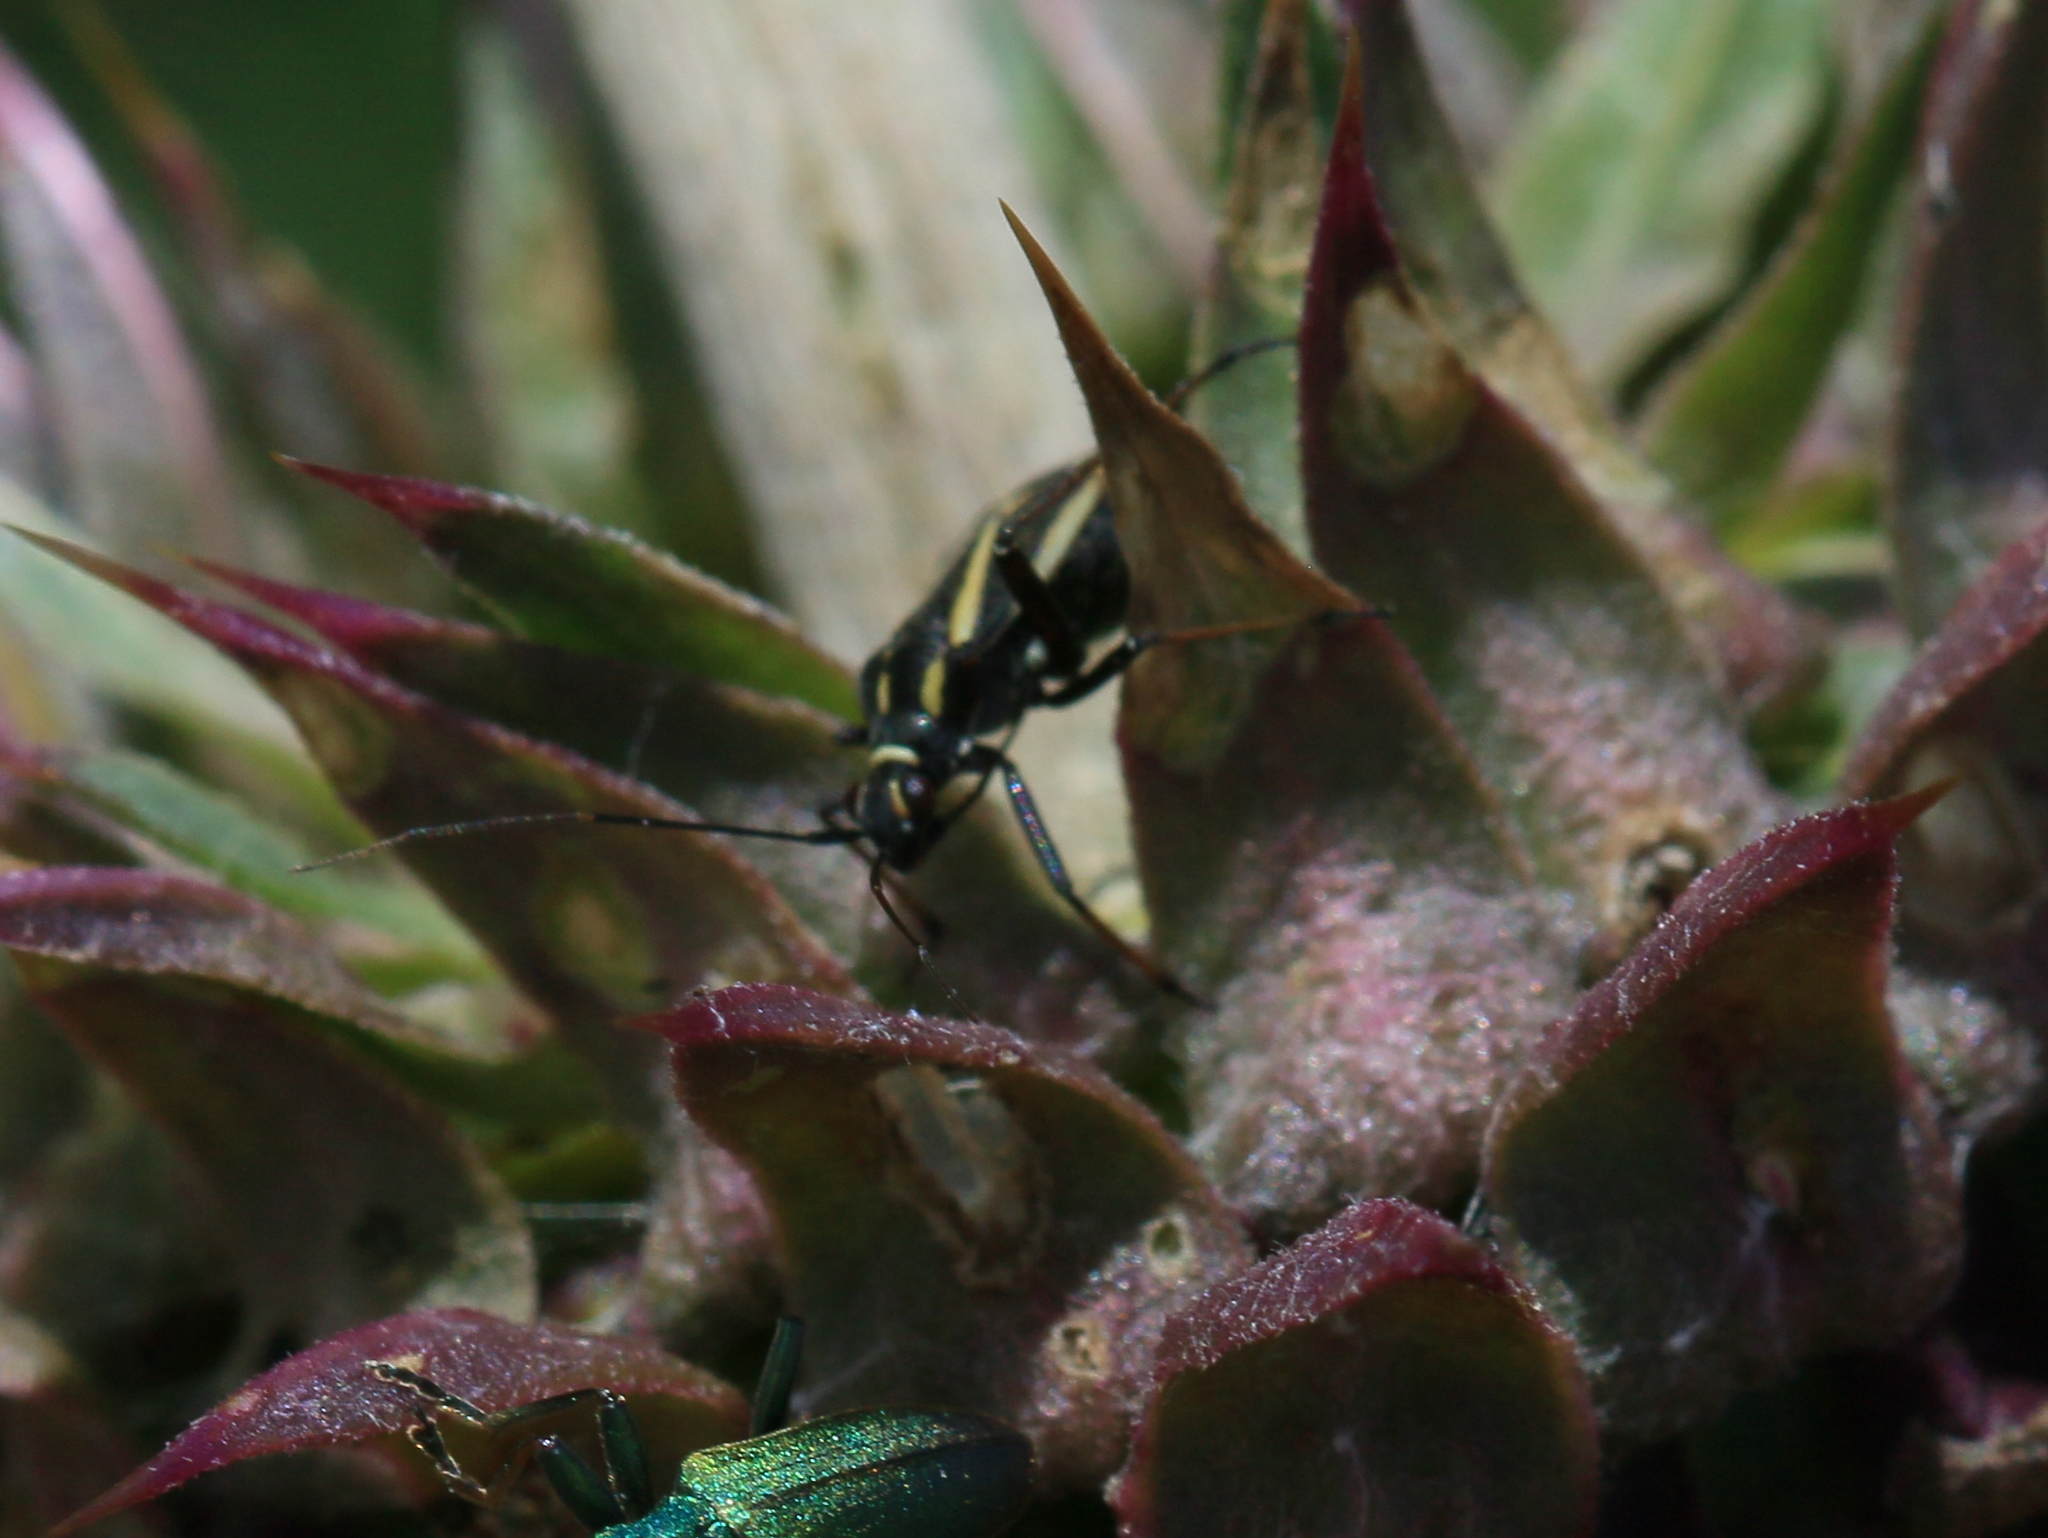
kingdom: Animalia
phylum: Arthropoda
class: Insecta
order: Hemiptera
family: Miridae
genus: Hadrodemus
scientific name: Hadrodemus m-flavum
